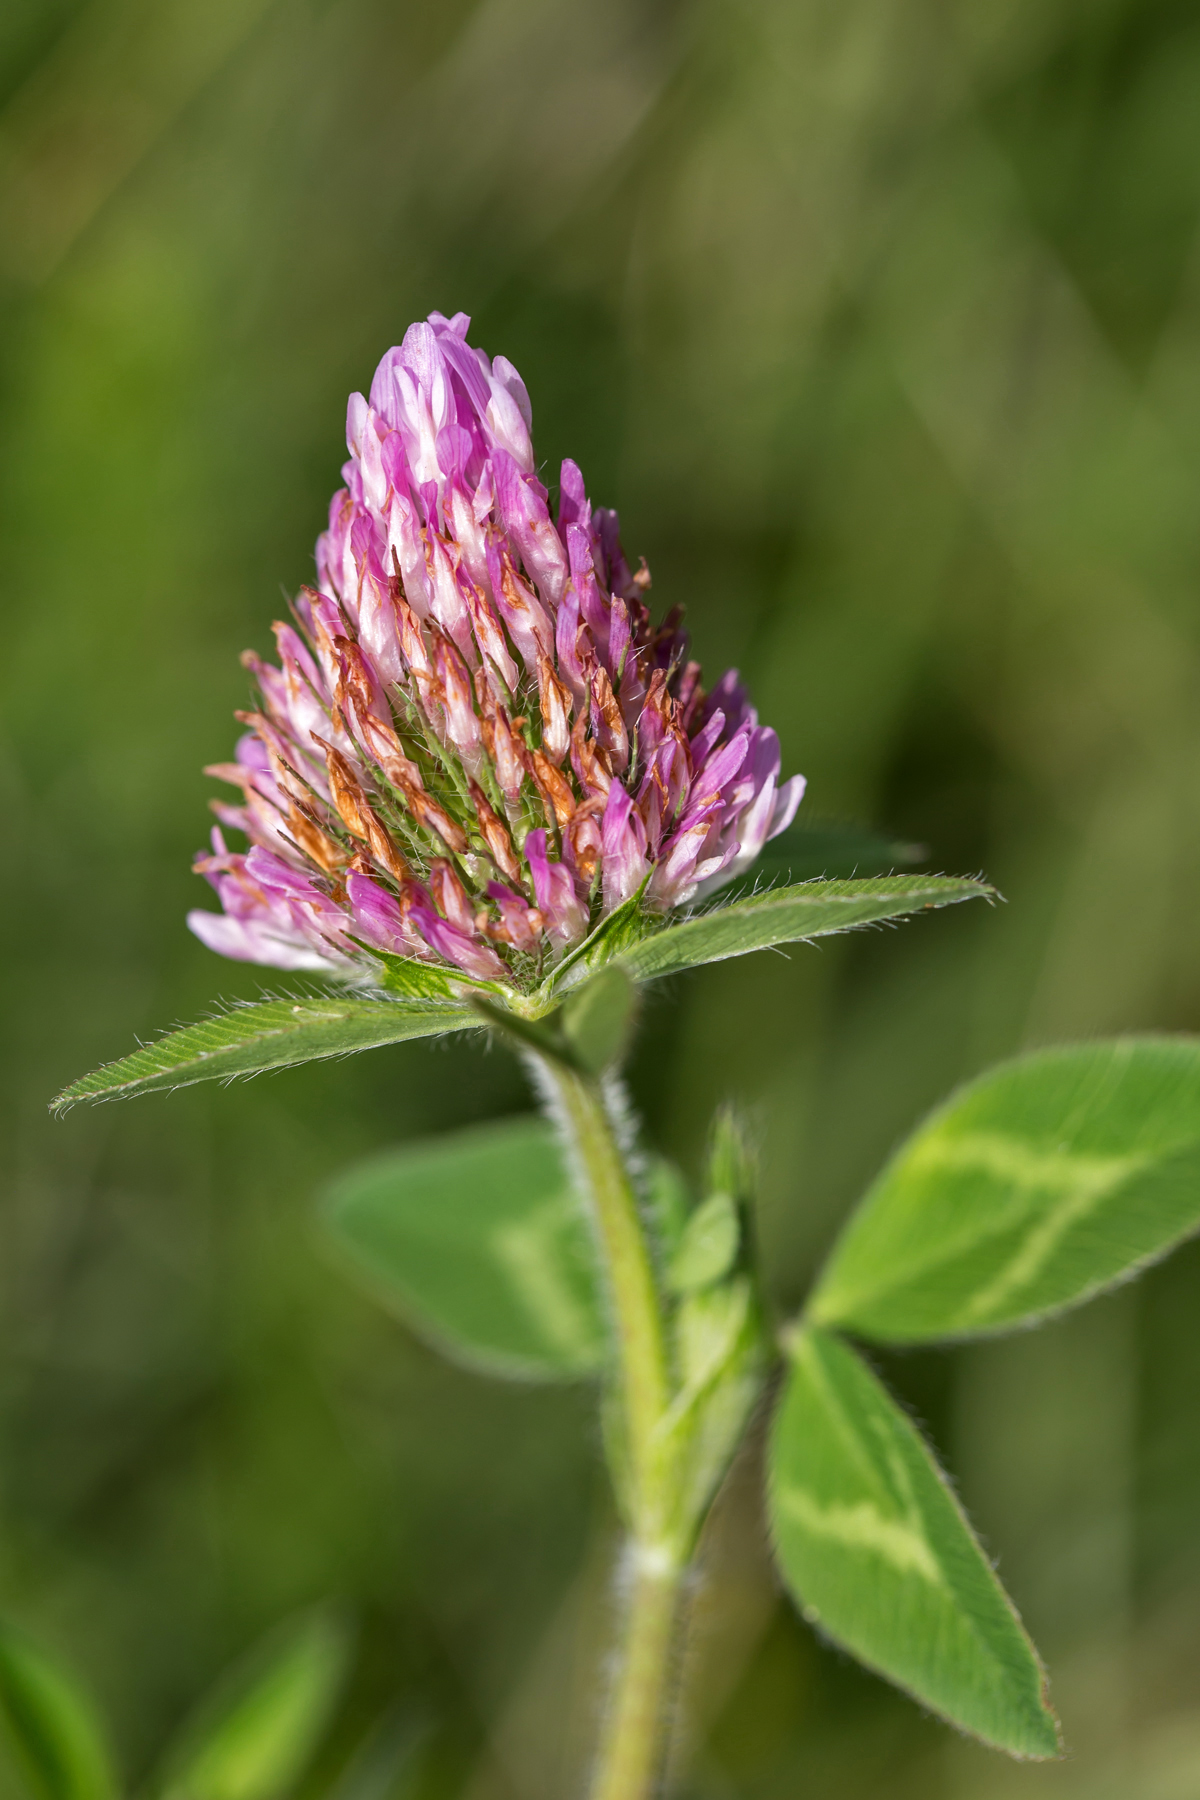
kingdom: Plantae
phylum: Tracheophyta
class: Magnoliopsida
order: Fabales
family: Fabaceae
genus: Trifolium
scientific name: Trifolium pratense
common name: Red clover
